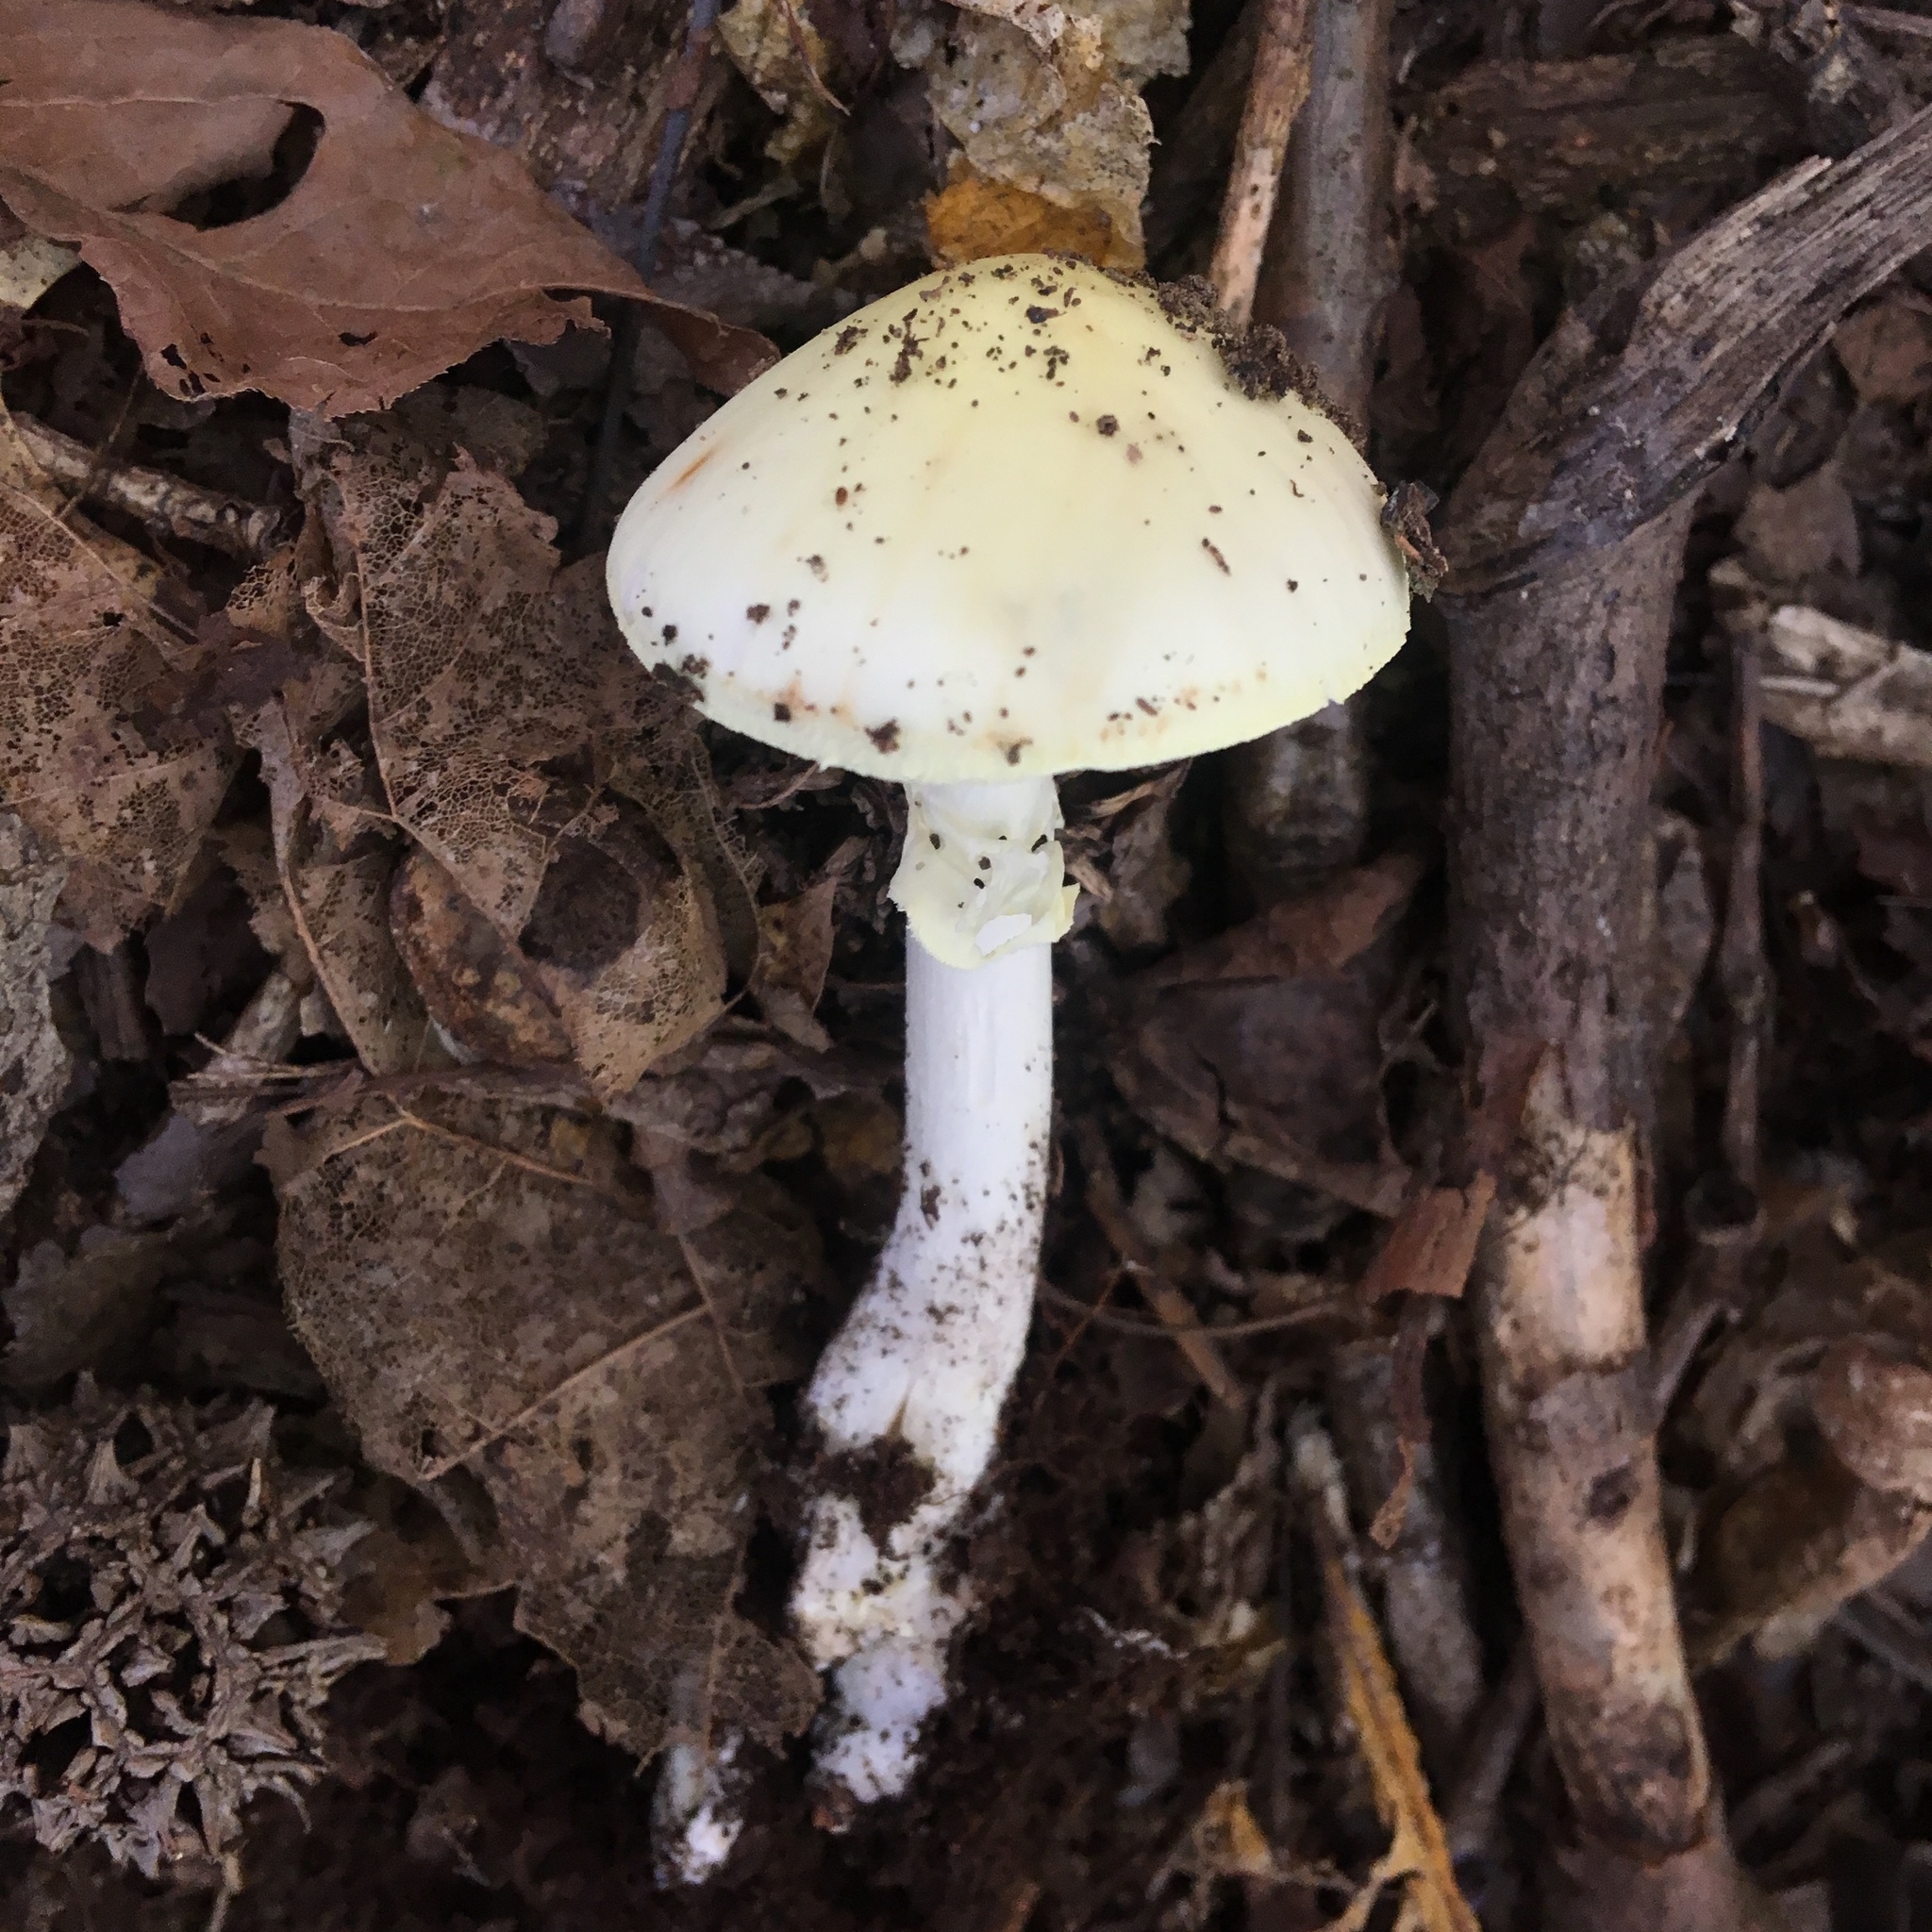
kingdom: Fungi
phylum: Basidiomycota
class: Agaricomycetes
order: Agaricales
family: Amanitaceae
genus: Amanita
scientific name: Amanita citrina
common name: False death-cap
